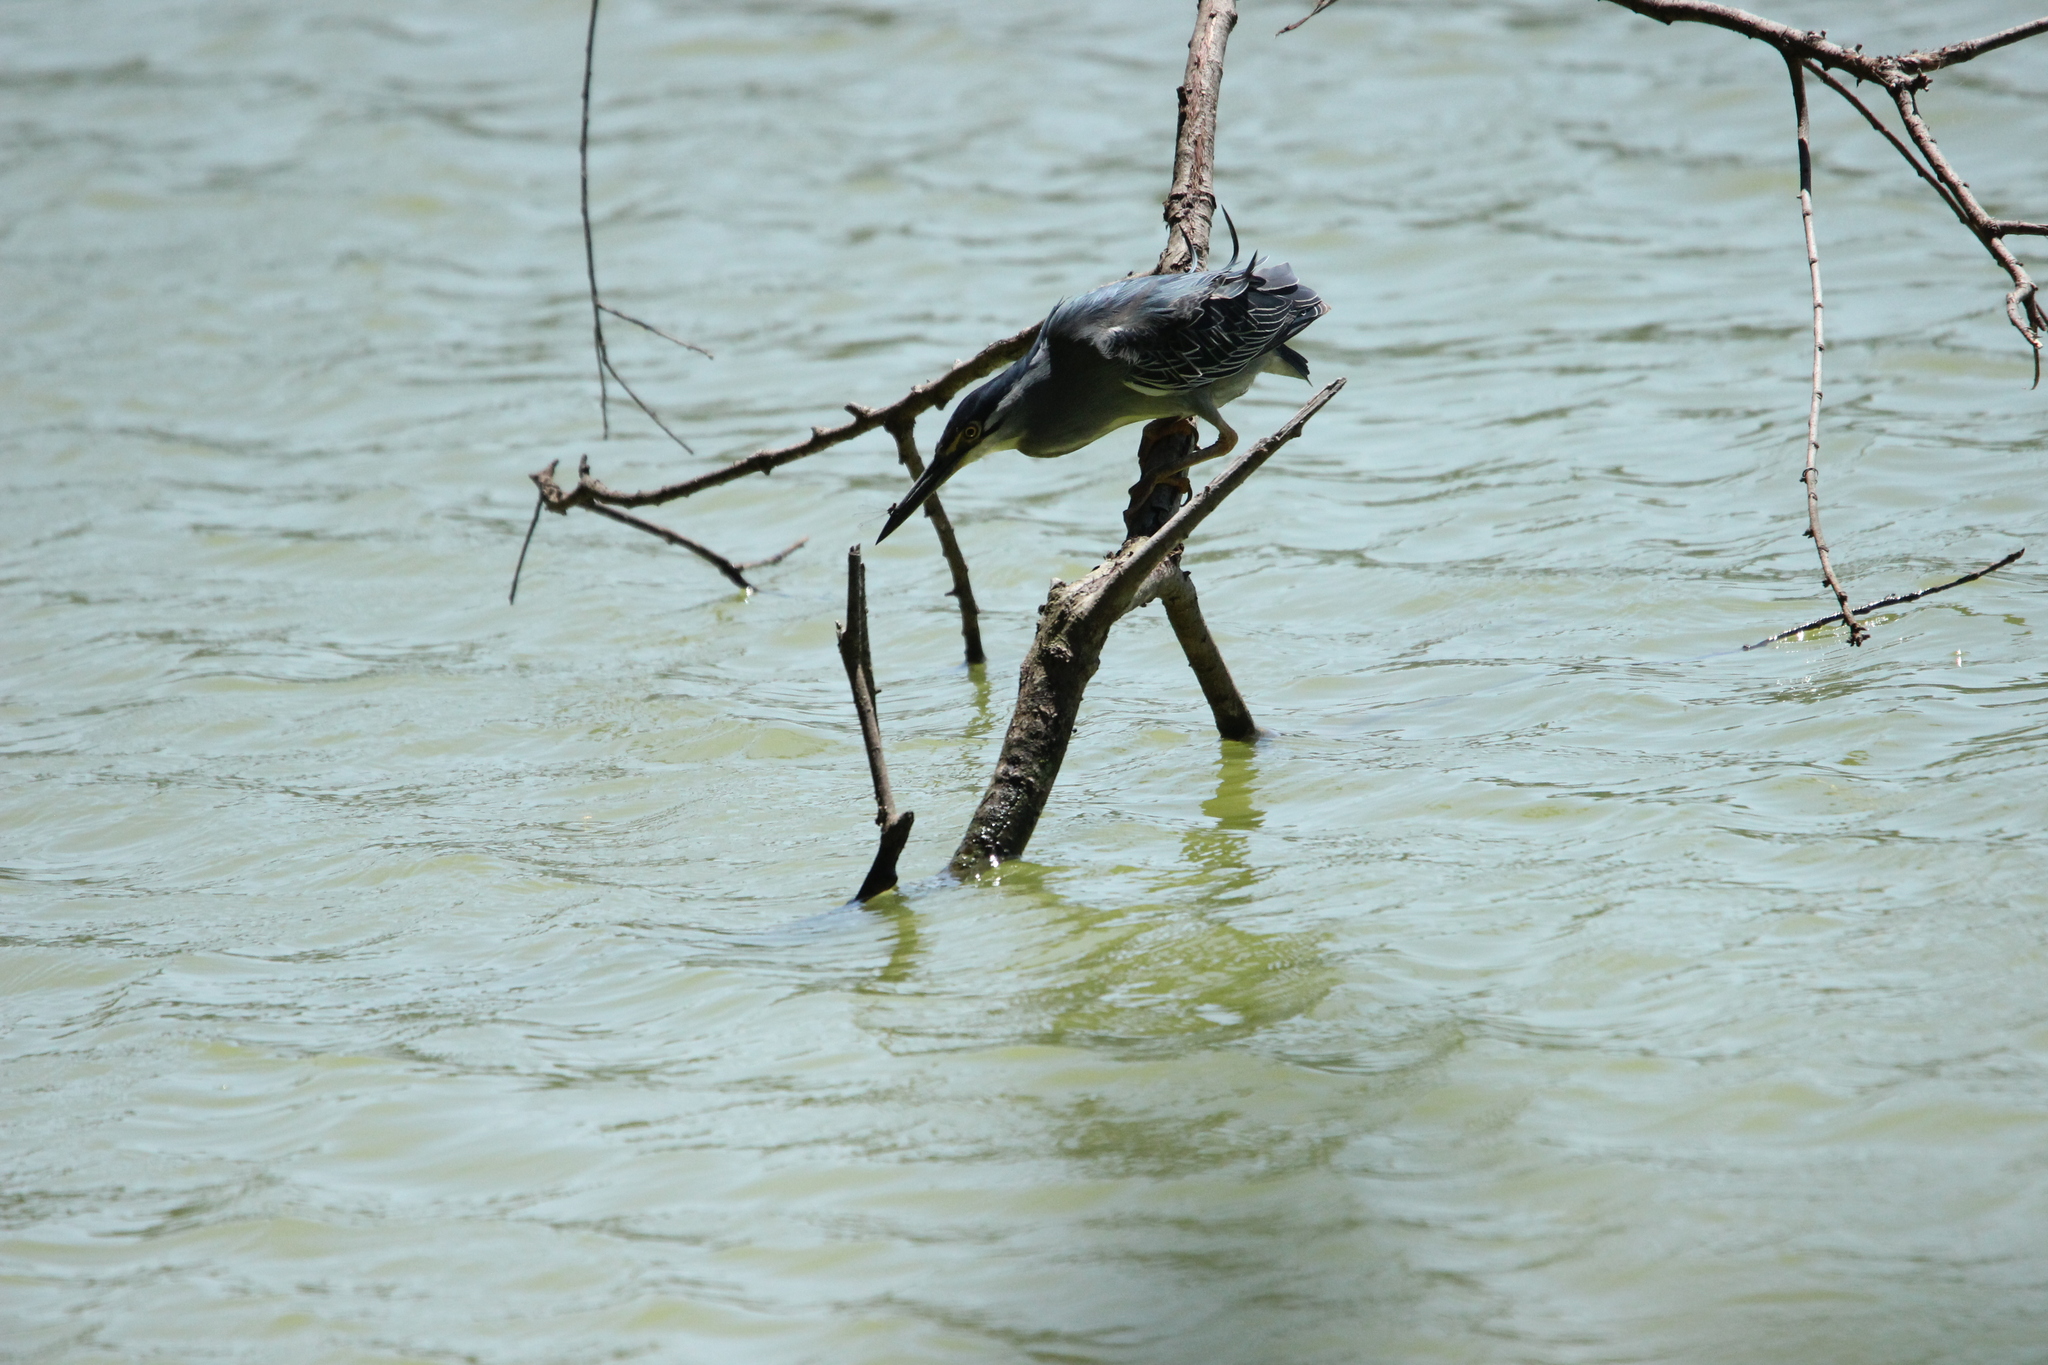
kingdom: Animalia
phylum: Chordata
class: Aves
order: Pelecaniformes
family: Ardeidae
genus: Butorides
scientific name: Butorides striata
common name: Striated heron
